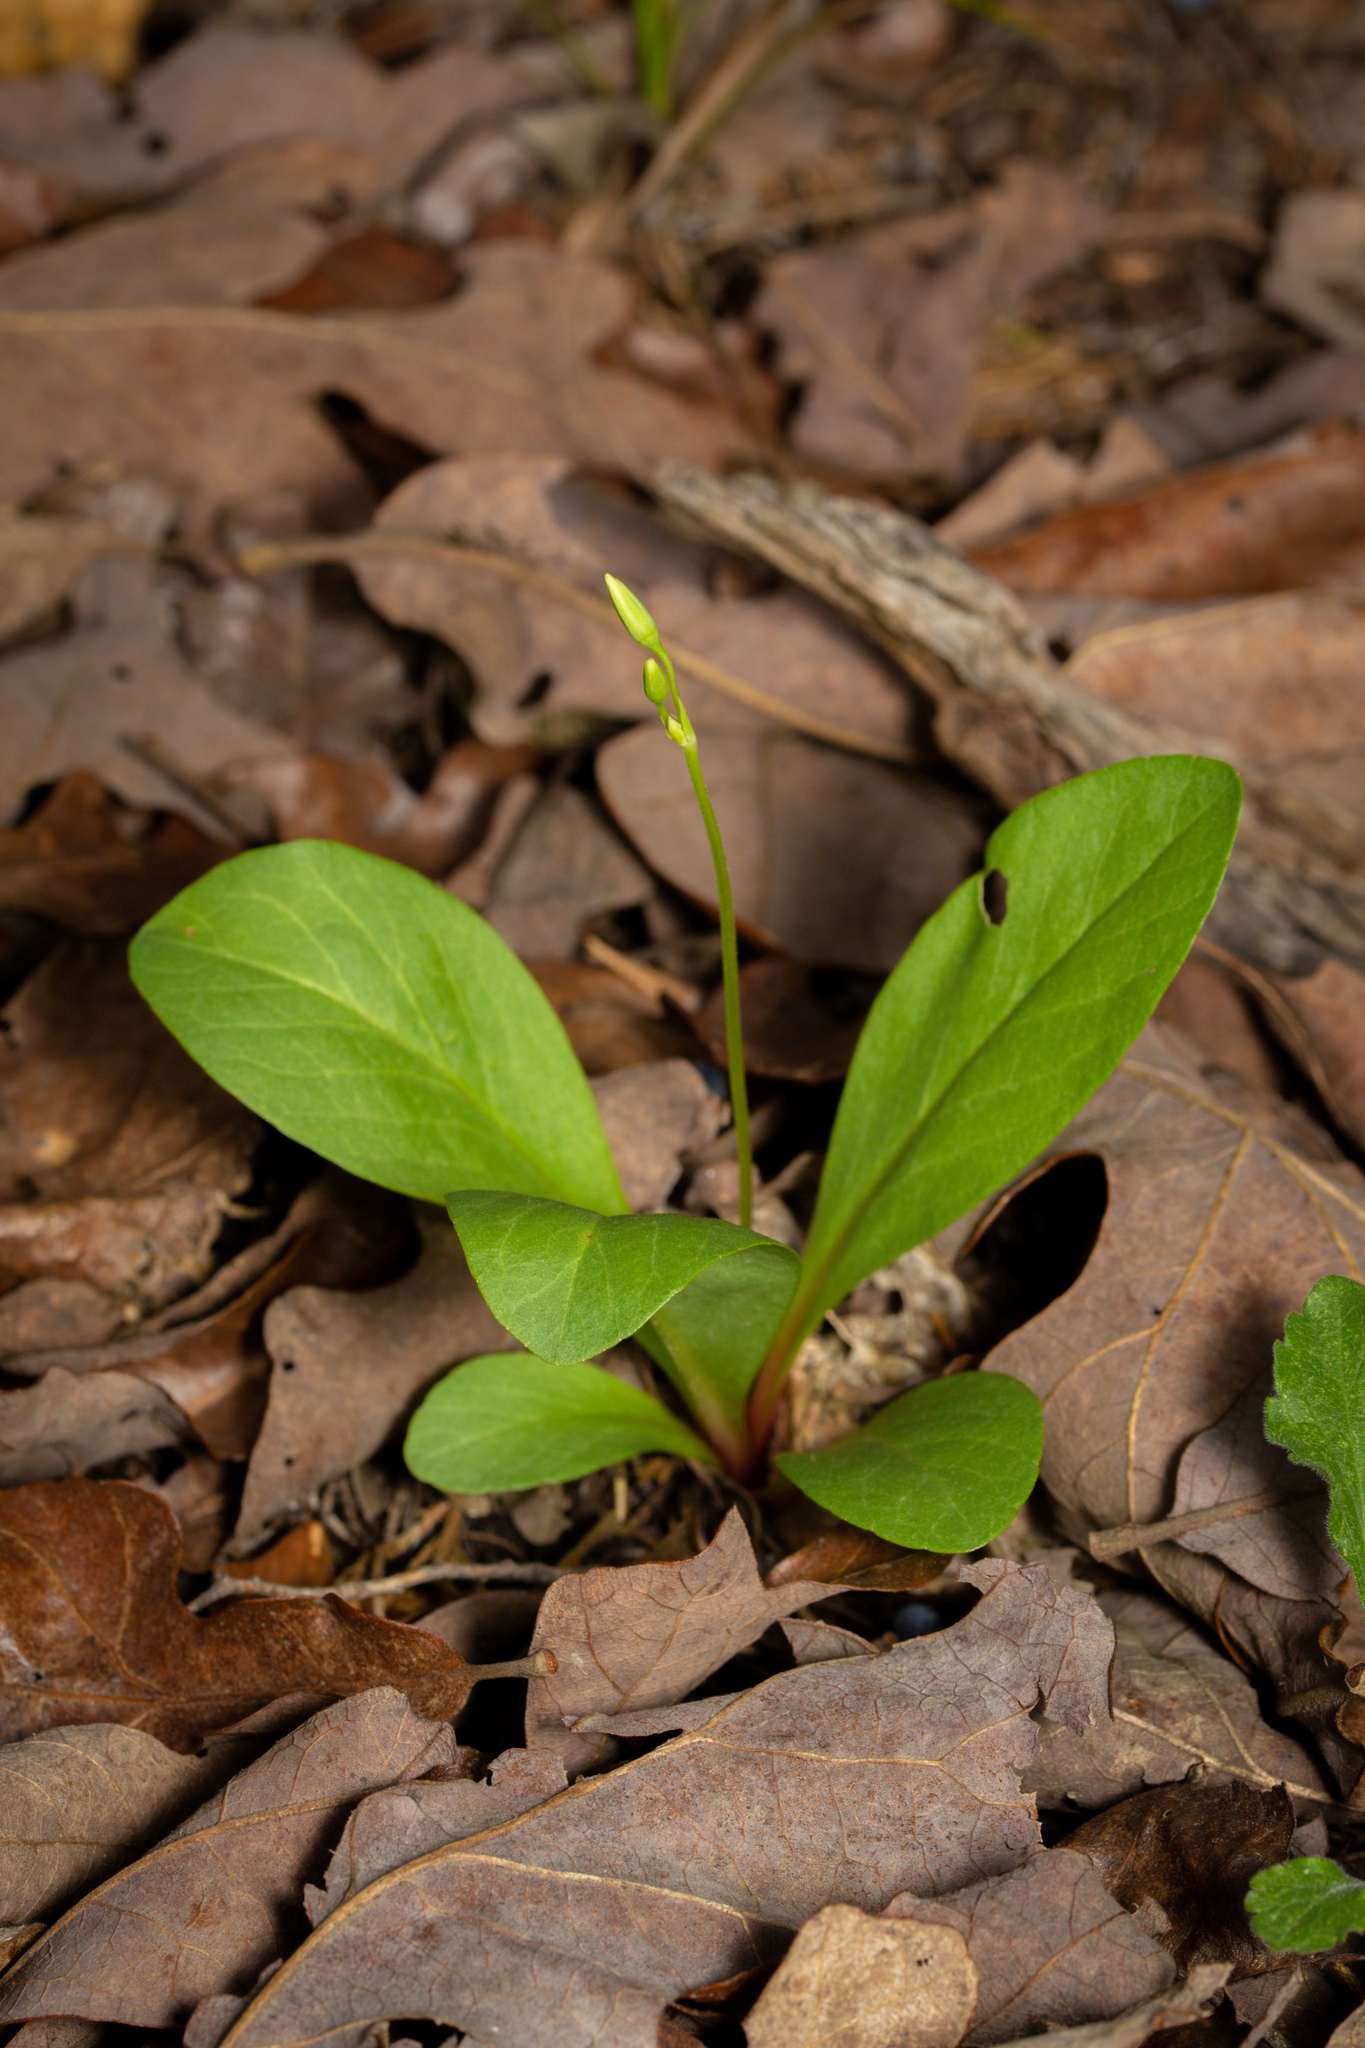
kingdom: Plantae
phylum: Tracheophyta
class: Magnoliopsida
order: Ericales
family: Primulaceae
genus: Dodecatheon
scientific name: Dodecatheon meadia
